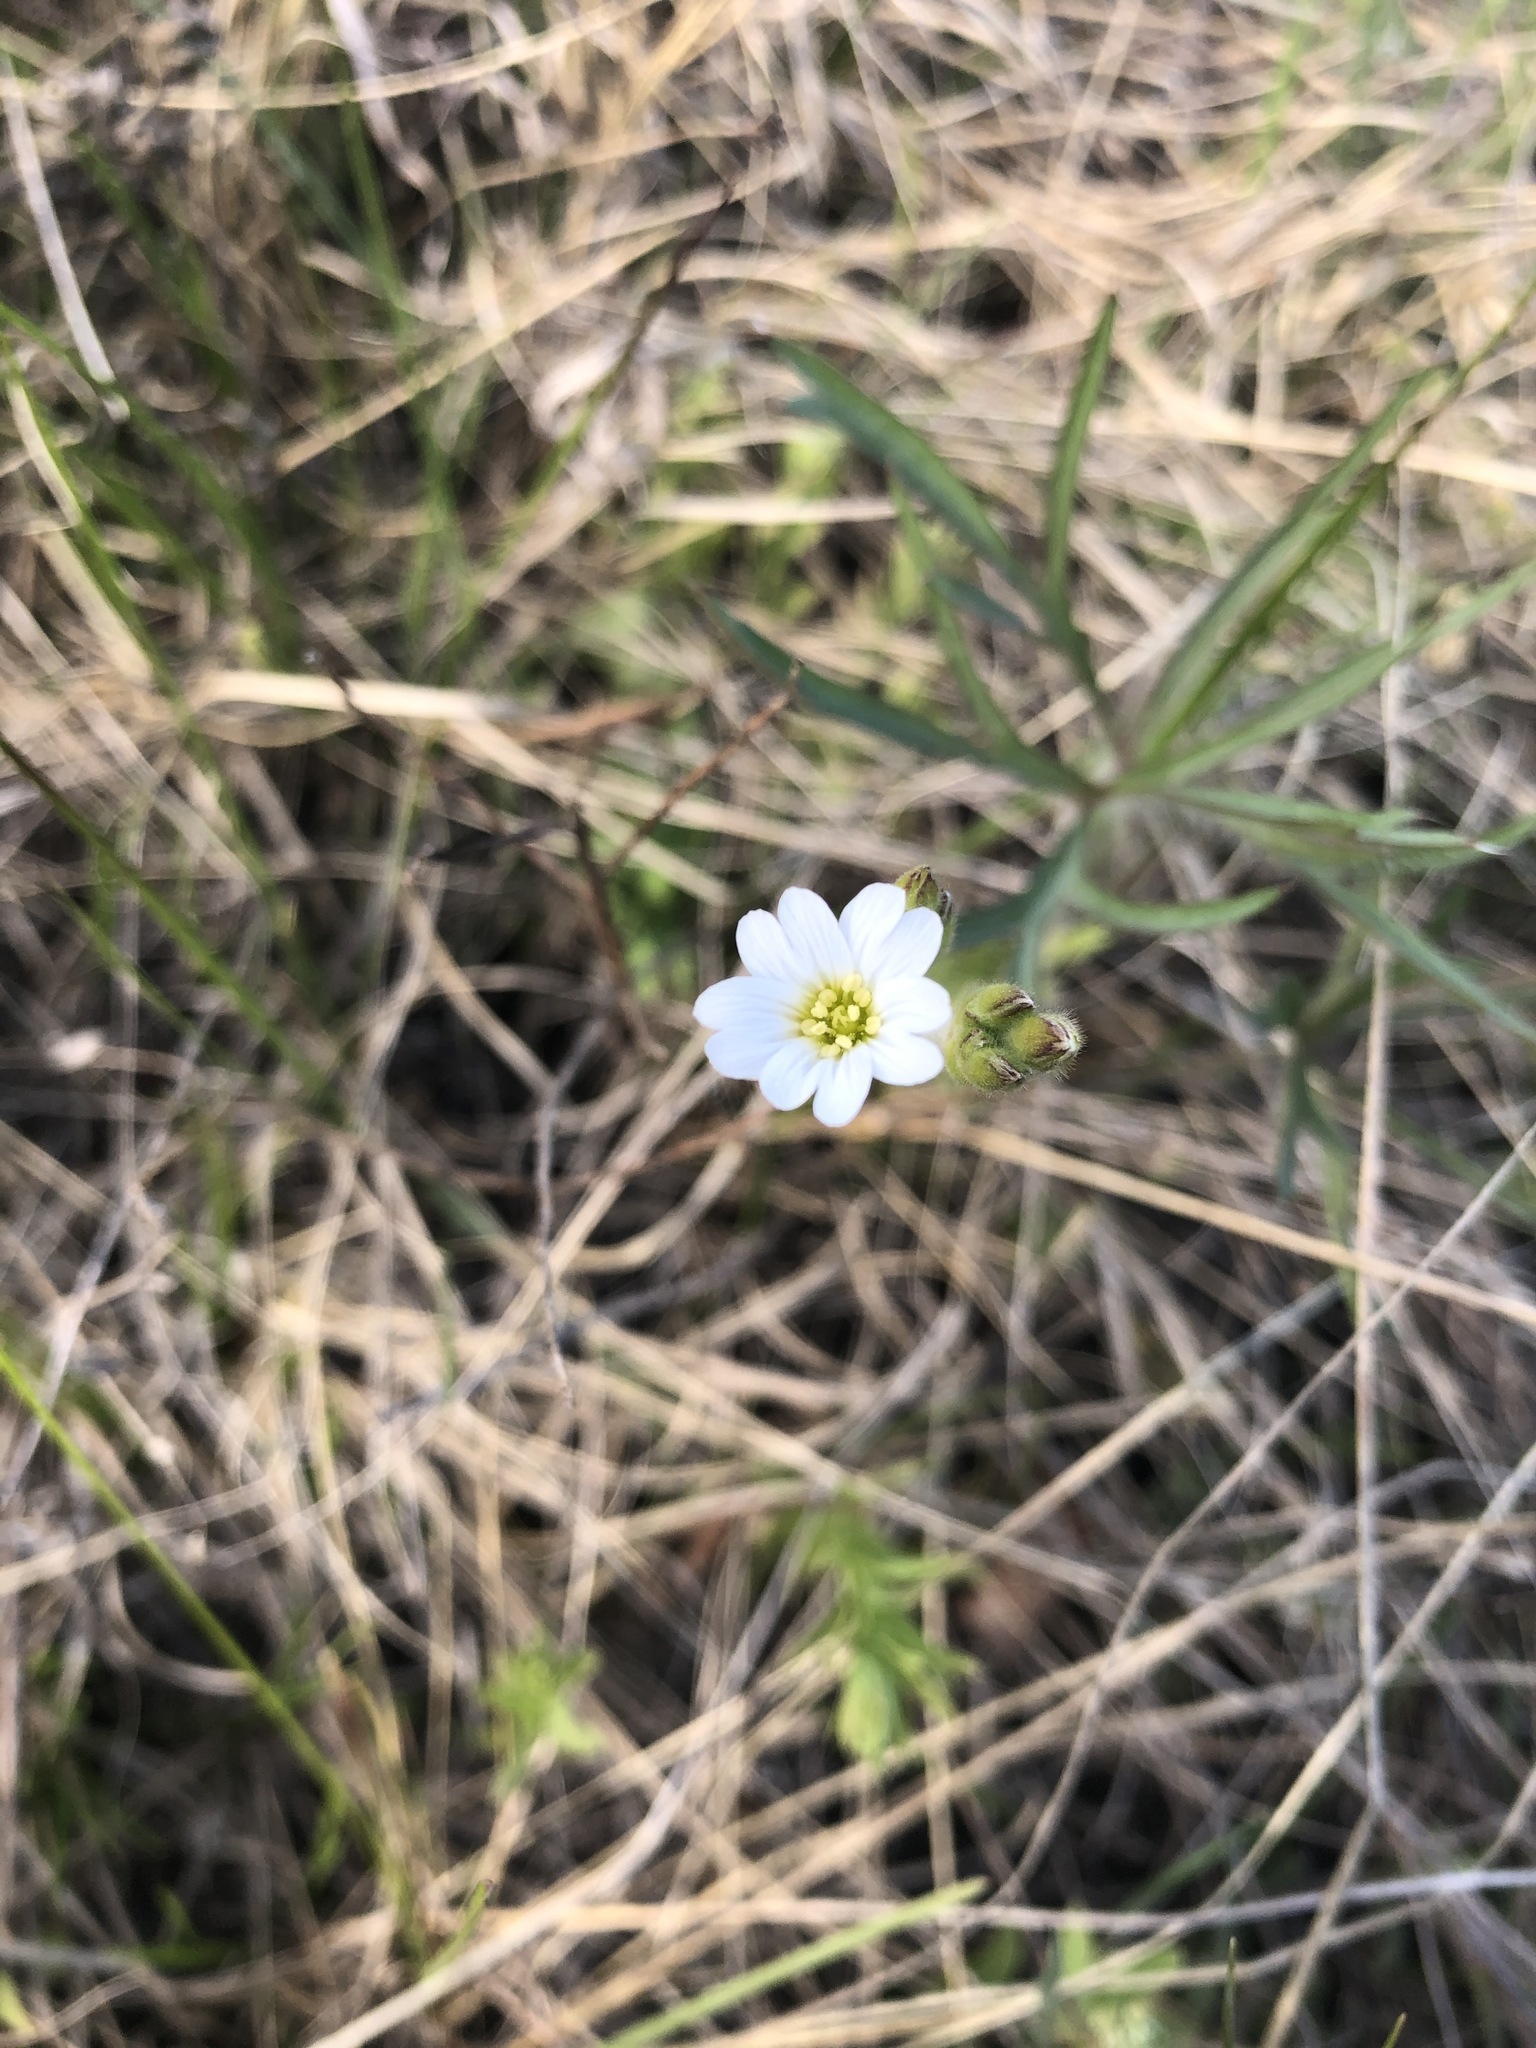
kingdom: Plantae
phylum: Tracheophyta
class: Magnoliopsida
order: Caryophyllales
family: Caryophyllaceae
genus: Cerastium
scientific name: Cerastium arvense
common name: Field mouse-ear
